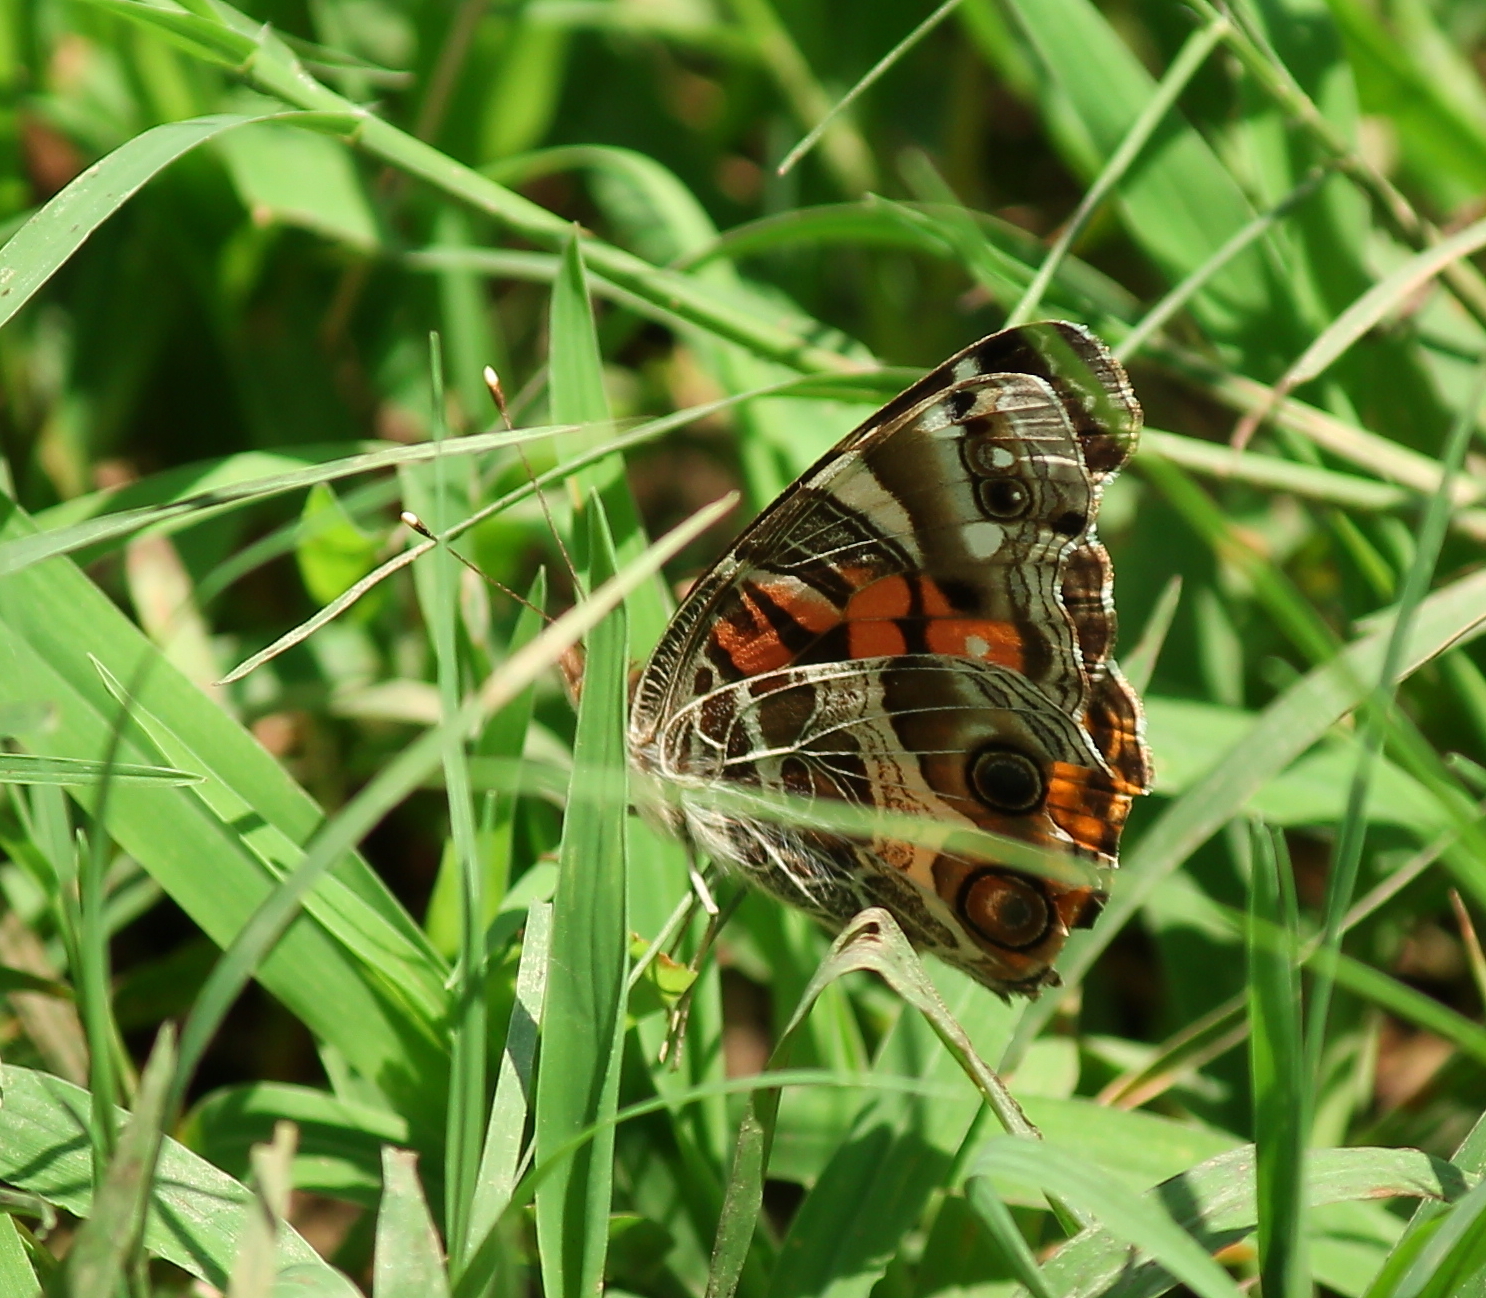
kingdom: Animalia
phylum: Arthropoda
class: Insecta
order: Lepidoptera
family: Nymphalidae
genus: Vanessa
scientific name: Vanessa virginiensis
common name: American lady
